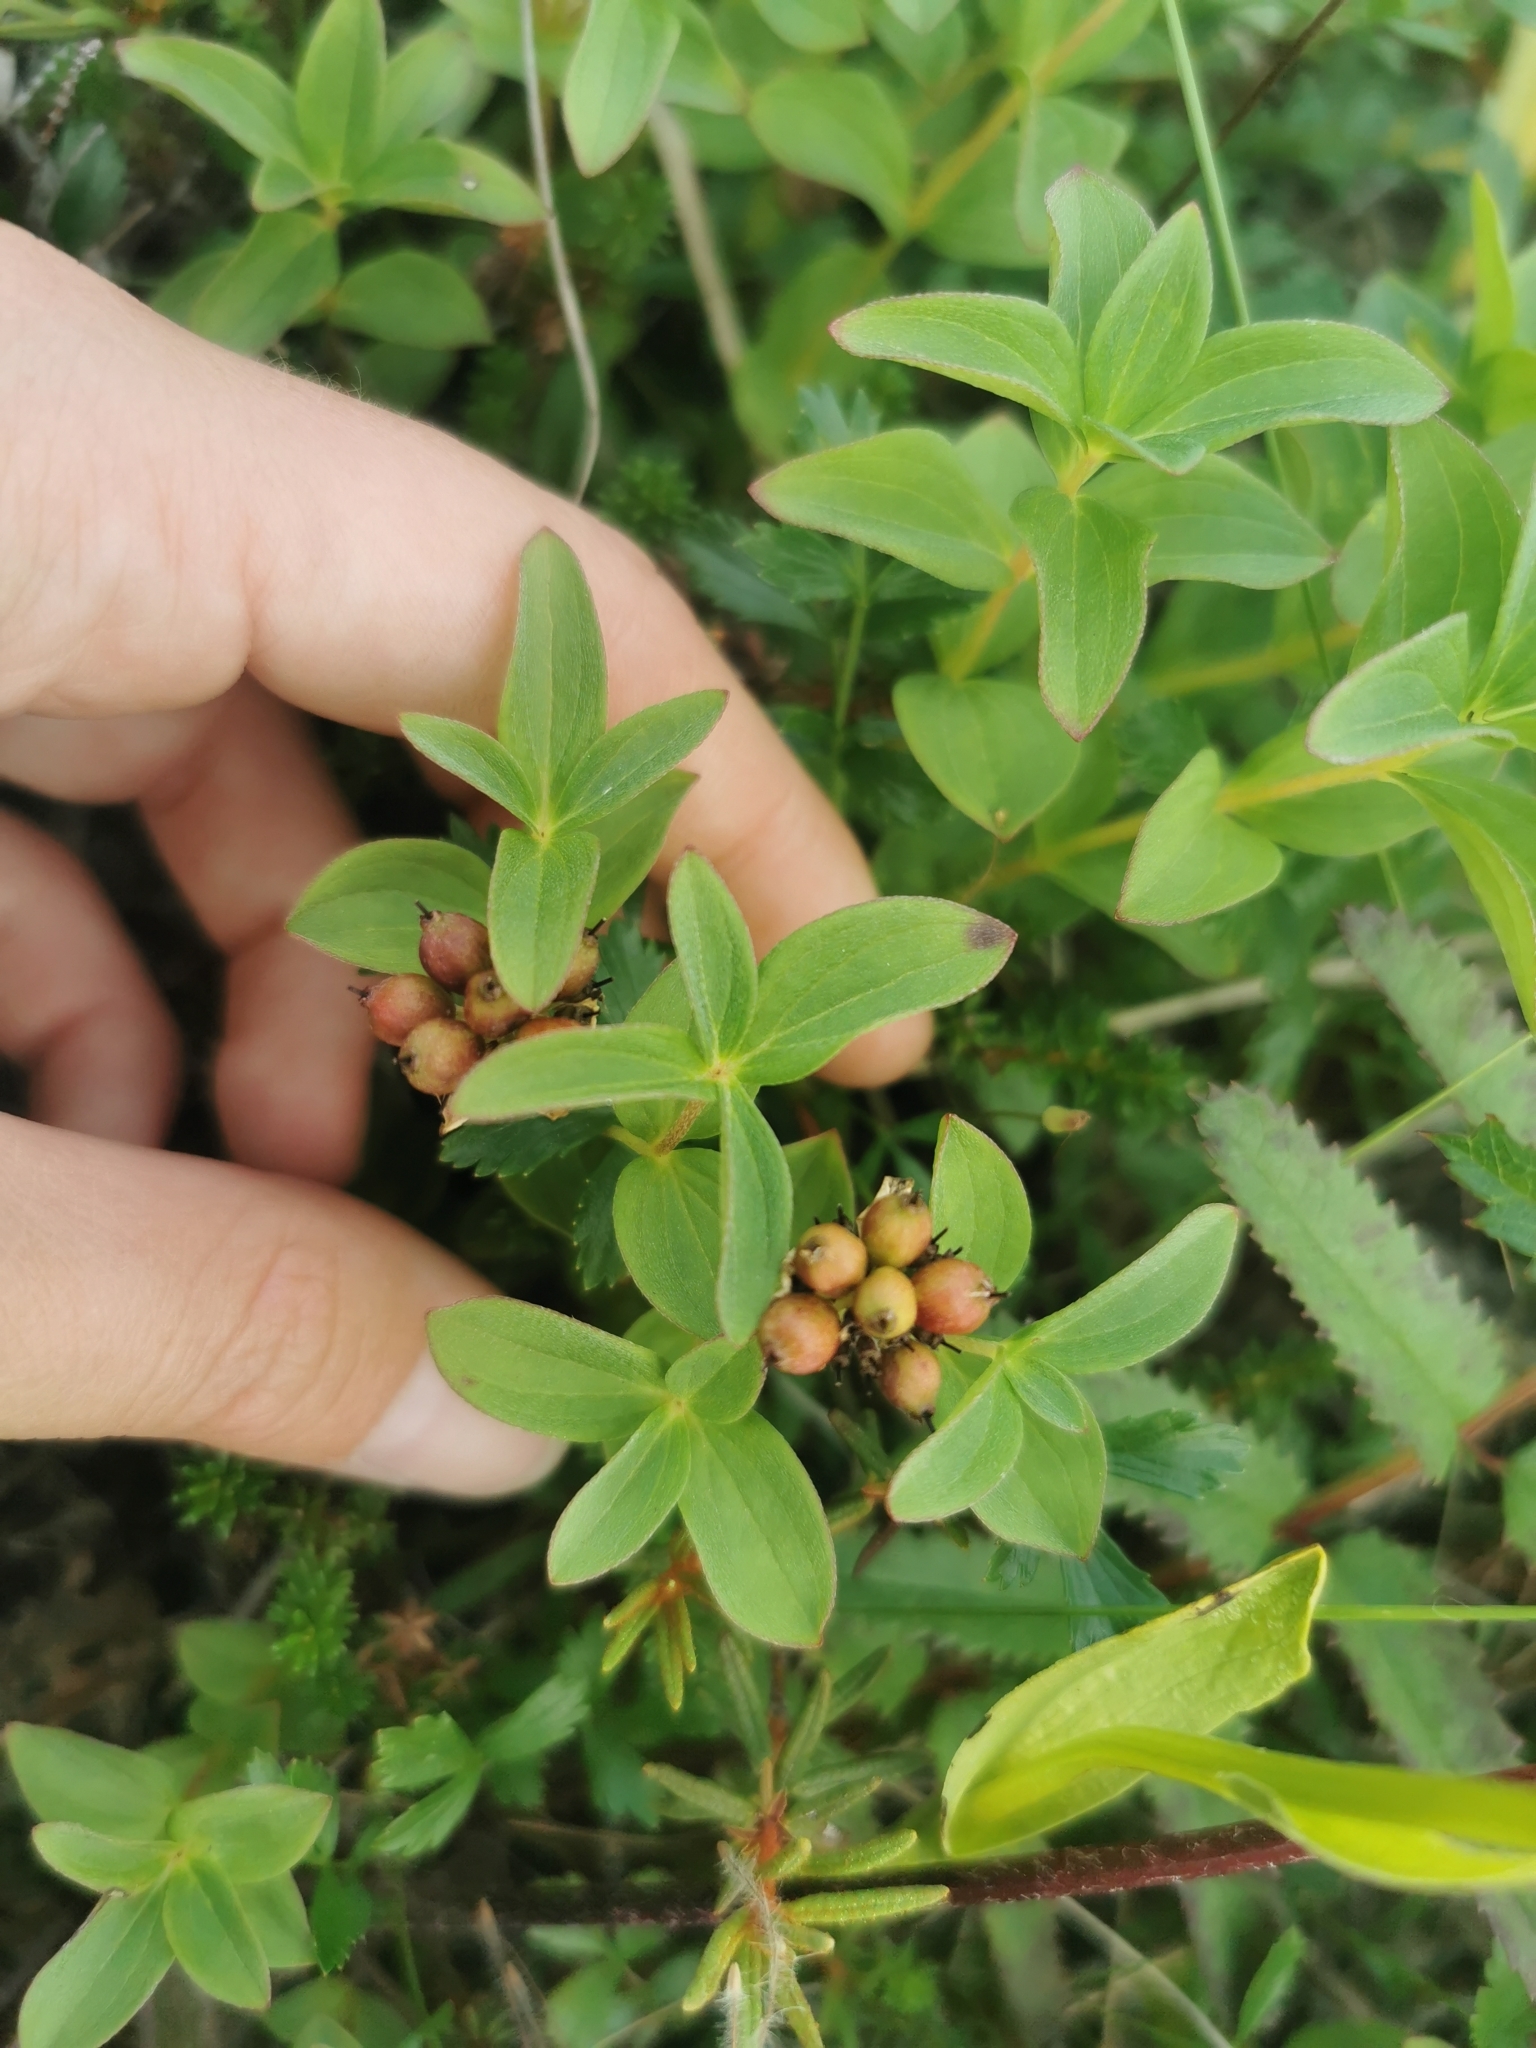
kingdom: Plantae
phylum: Tracheophyta
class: Magnoliopsida
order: Cornales
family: Cornaceae
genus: Cornus
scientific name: Cornus suecica
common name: Dwarf cornel
